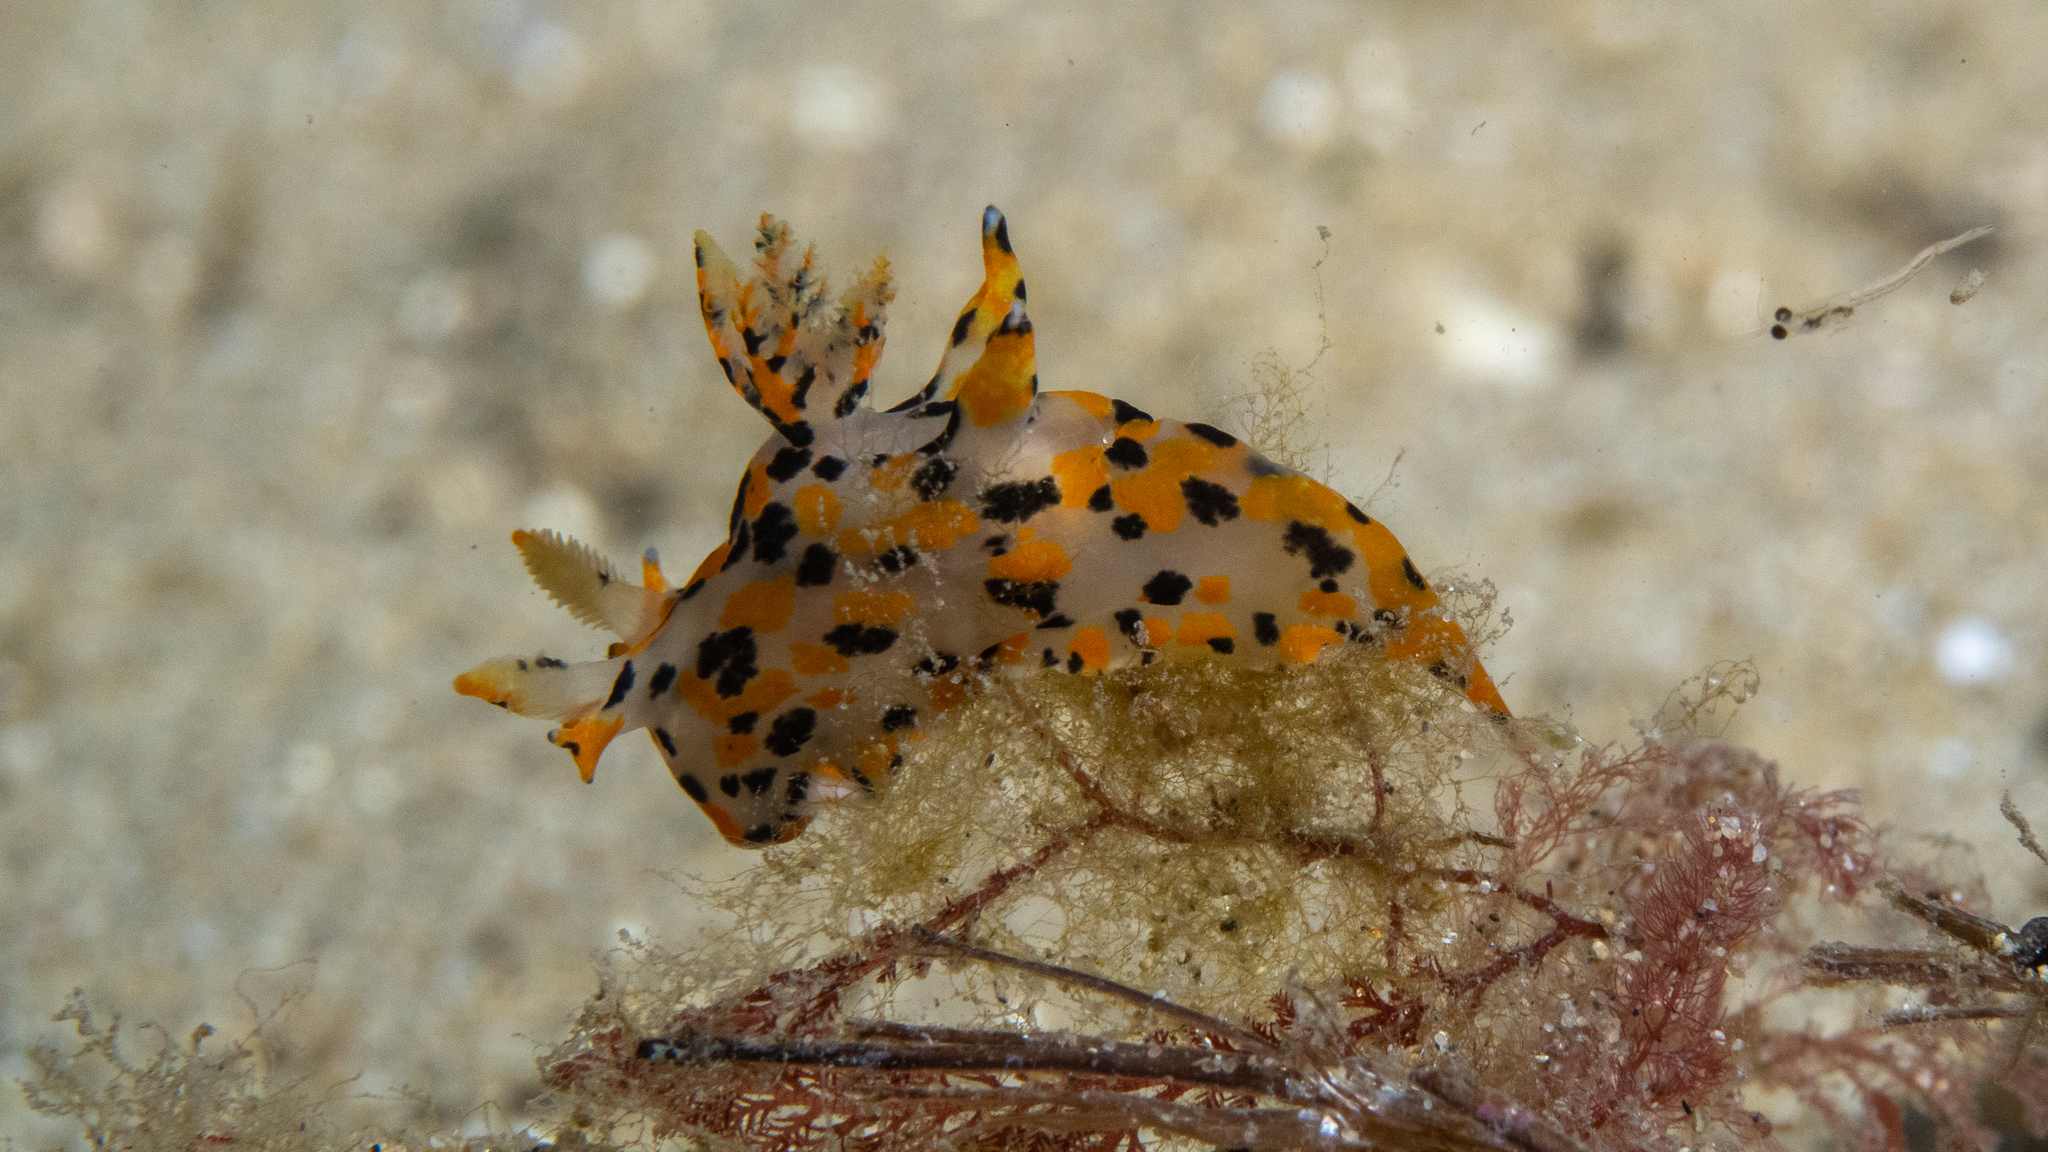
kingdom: Animalia
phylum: Mollusca
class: Gastropoda
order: Nudibranchia
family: Polyceridae
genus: Thecacera
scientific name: Thecacera pennigera
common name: Thecacera
